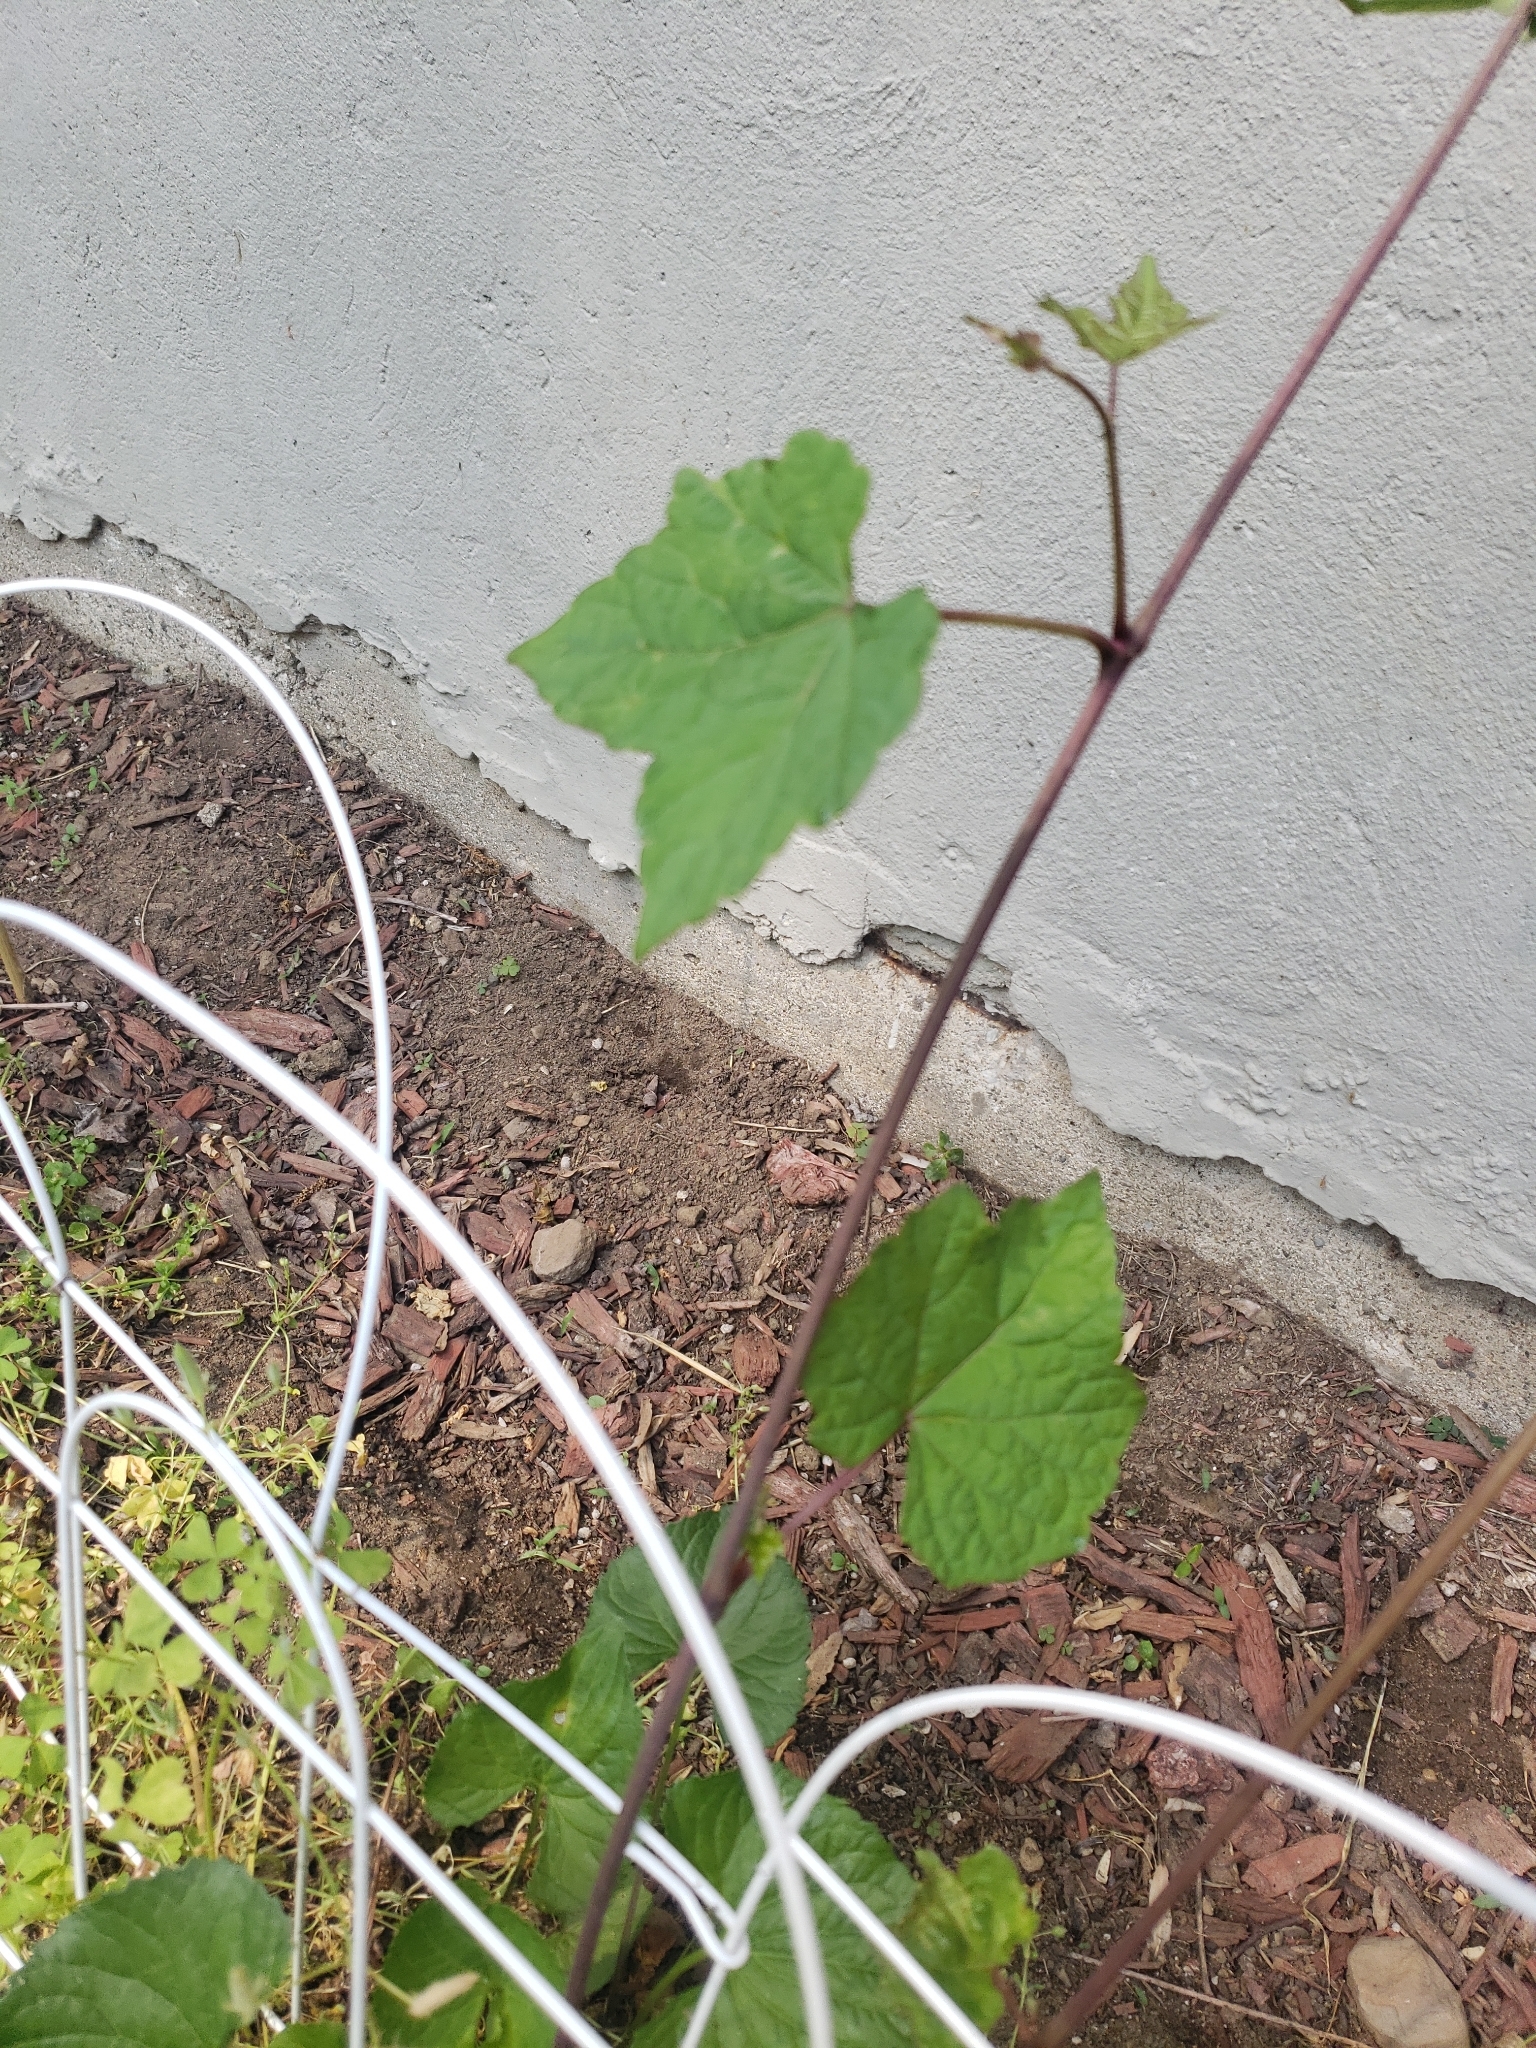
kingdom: Plantae
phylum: Tracheophyta
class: Magnoliopsida
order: Vitales
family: Vitaceae
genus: Ampelopsis
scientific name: Ampelopsis glandulosa
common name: Amur peppervine
